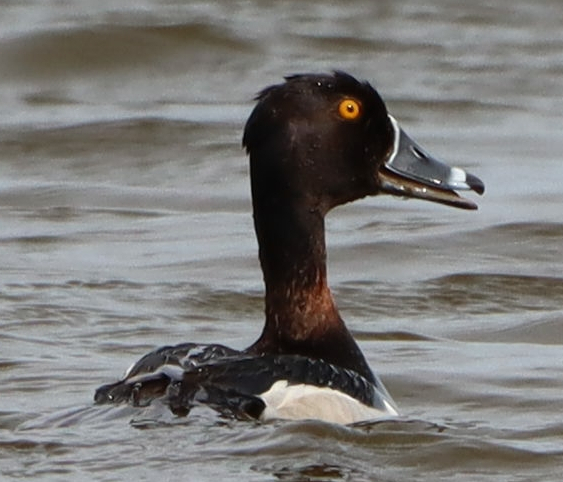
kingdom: Animalia
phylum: Chordata
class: Aves
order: Anseriformes
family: Anatidae
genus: Aythya
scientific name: Aythya collaris
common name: Ring-necked duck
